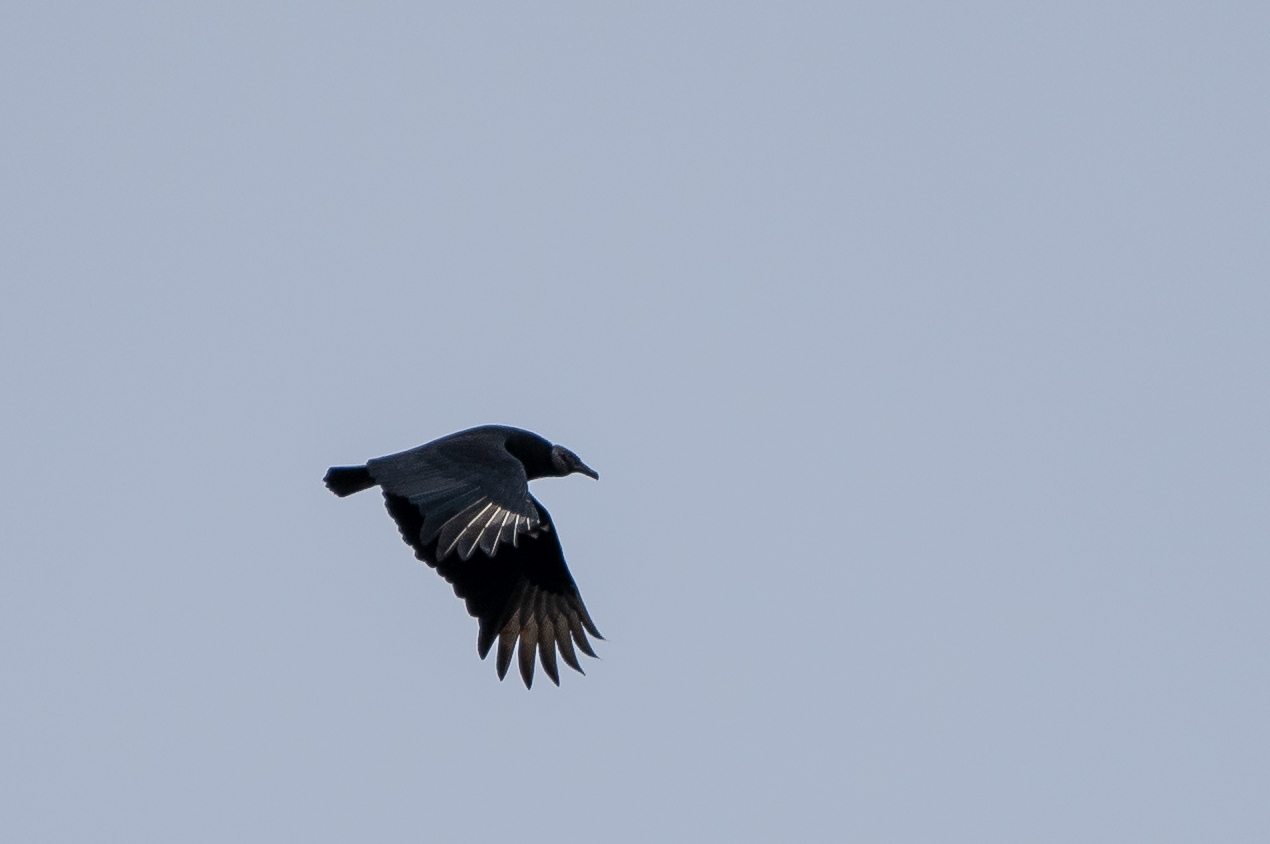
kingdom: Animalia
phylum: Chordata
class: Aves
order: Accipitriformes
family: Cathartidae
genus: Coragyps
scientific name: Coragyps atratus
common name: Black vulture
